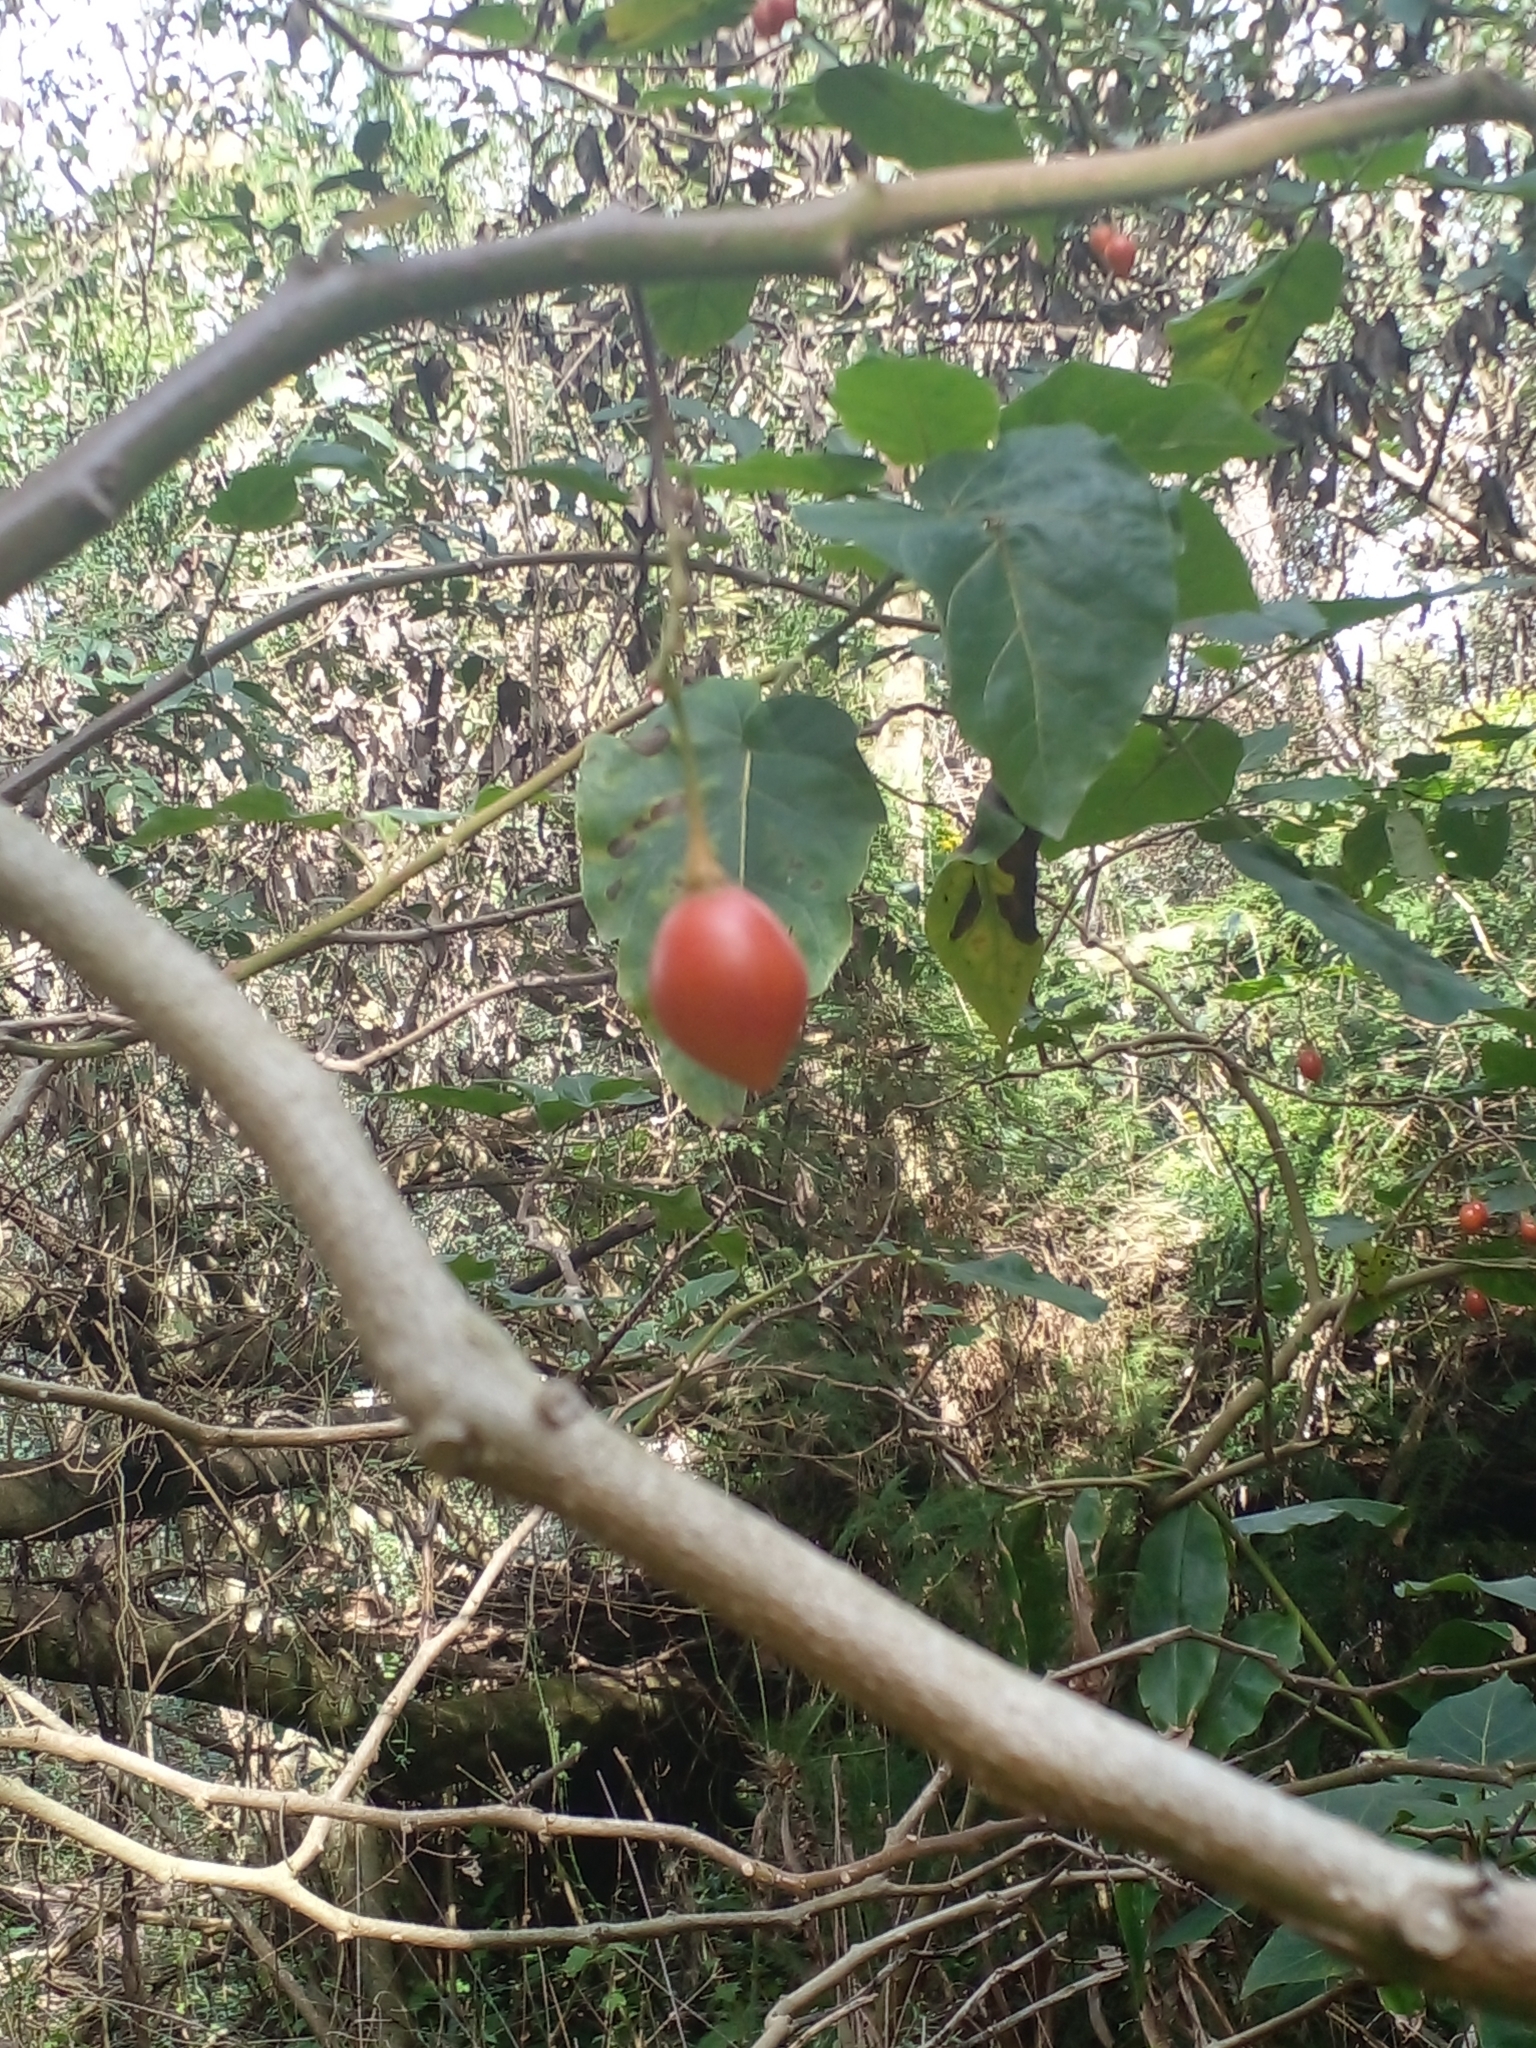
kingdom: Plantae
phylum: Tracheophyta
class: Magnoliopsida
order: Solanales
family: Solanaceae
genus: Solanum
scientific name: Solanum betaceum
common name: Tamarillo
